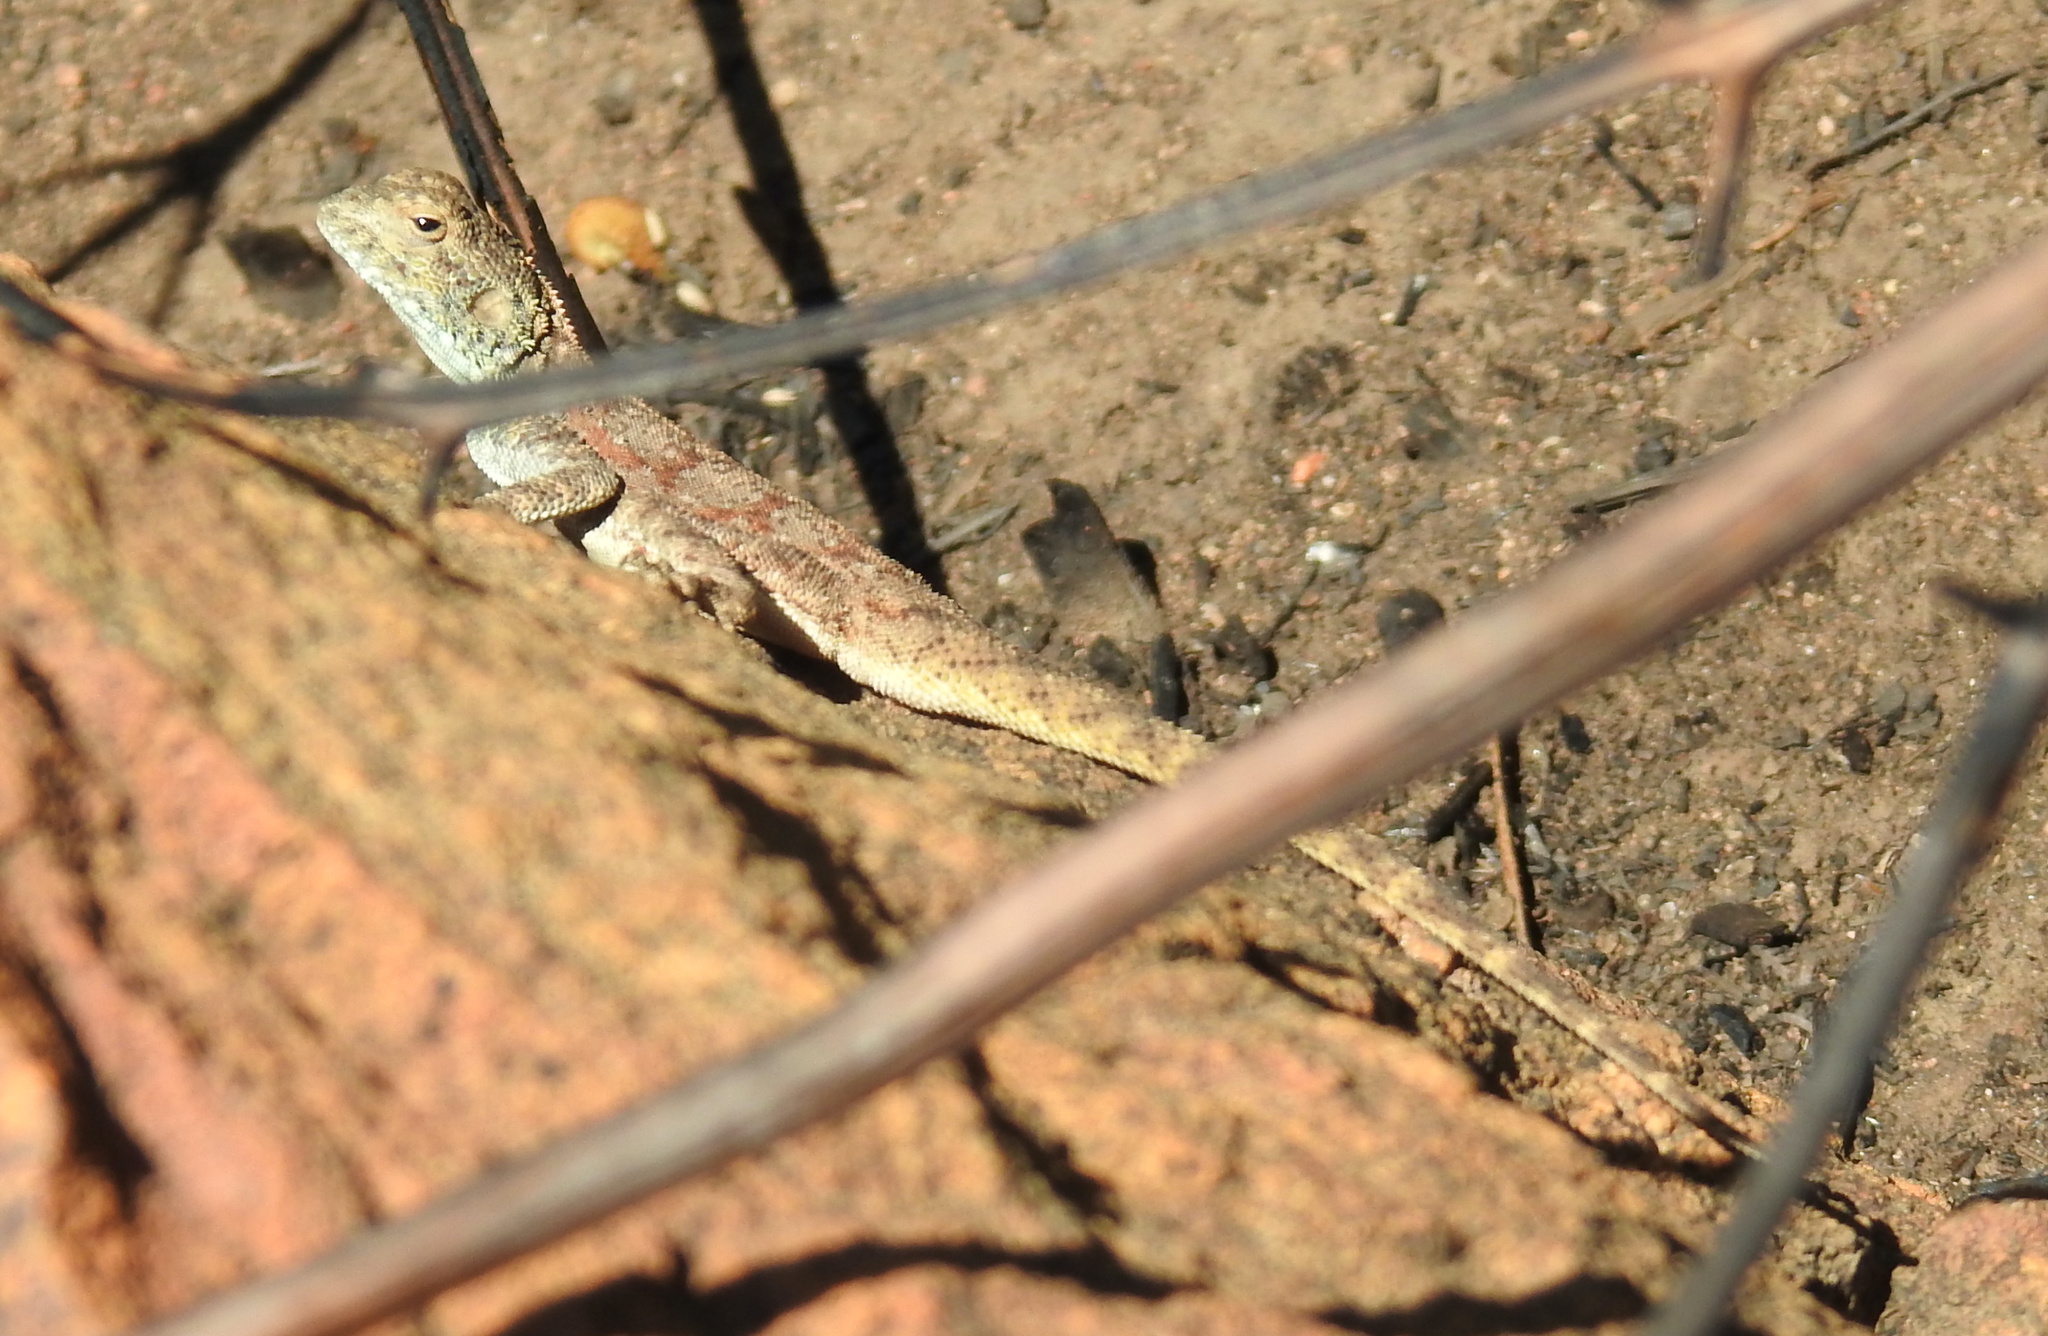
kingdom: Animalia
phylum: Chordata
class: Squamata
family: Agamidae
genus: Agama
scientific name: Agama atra
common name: Southern african rock agama
